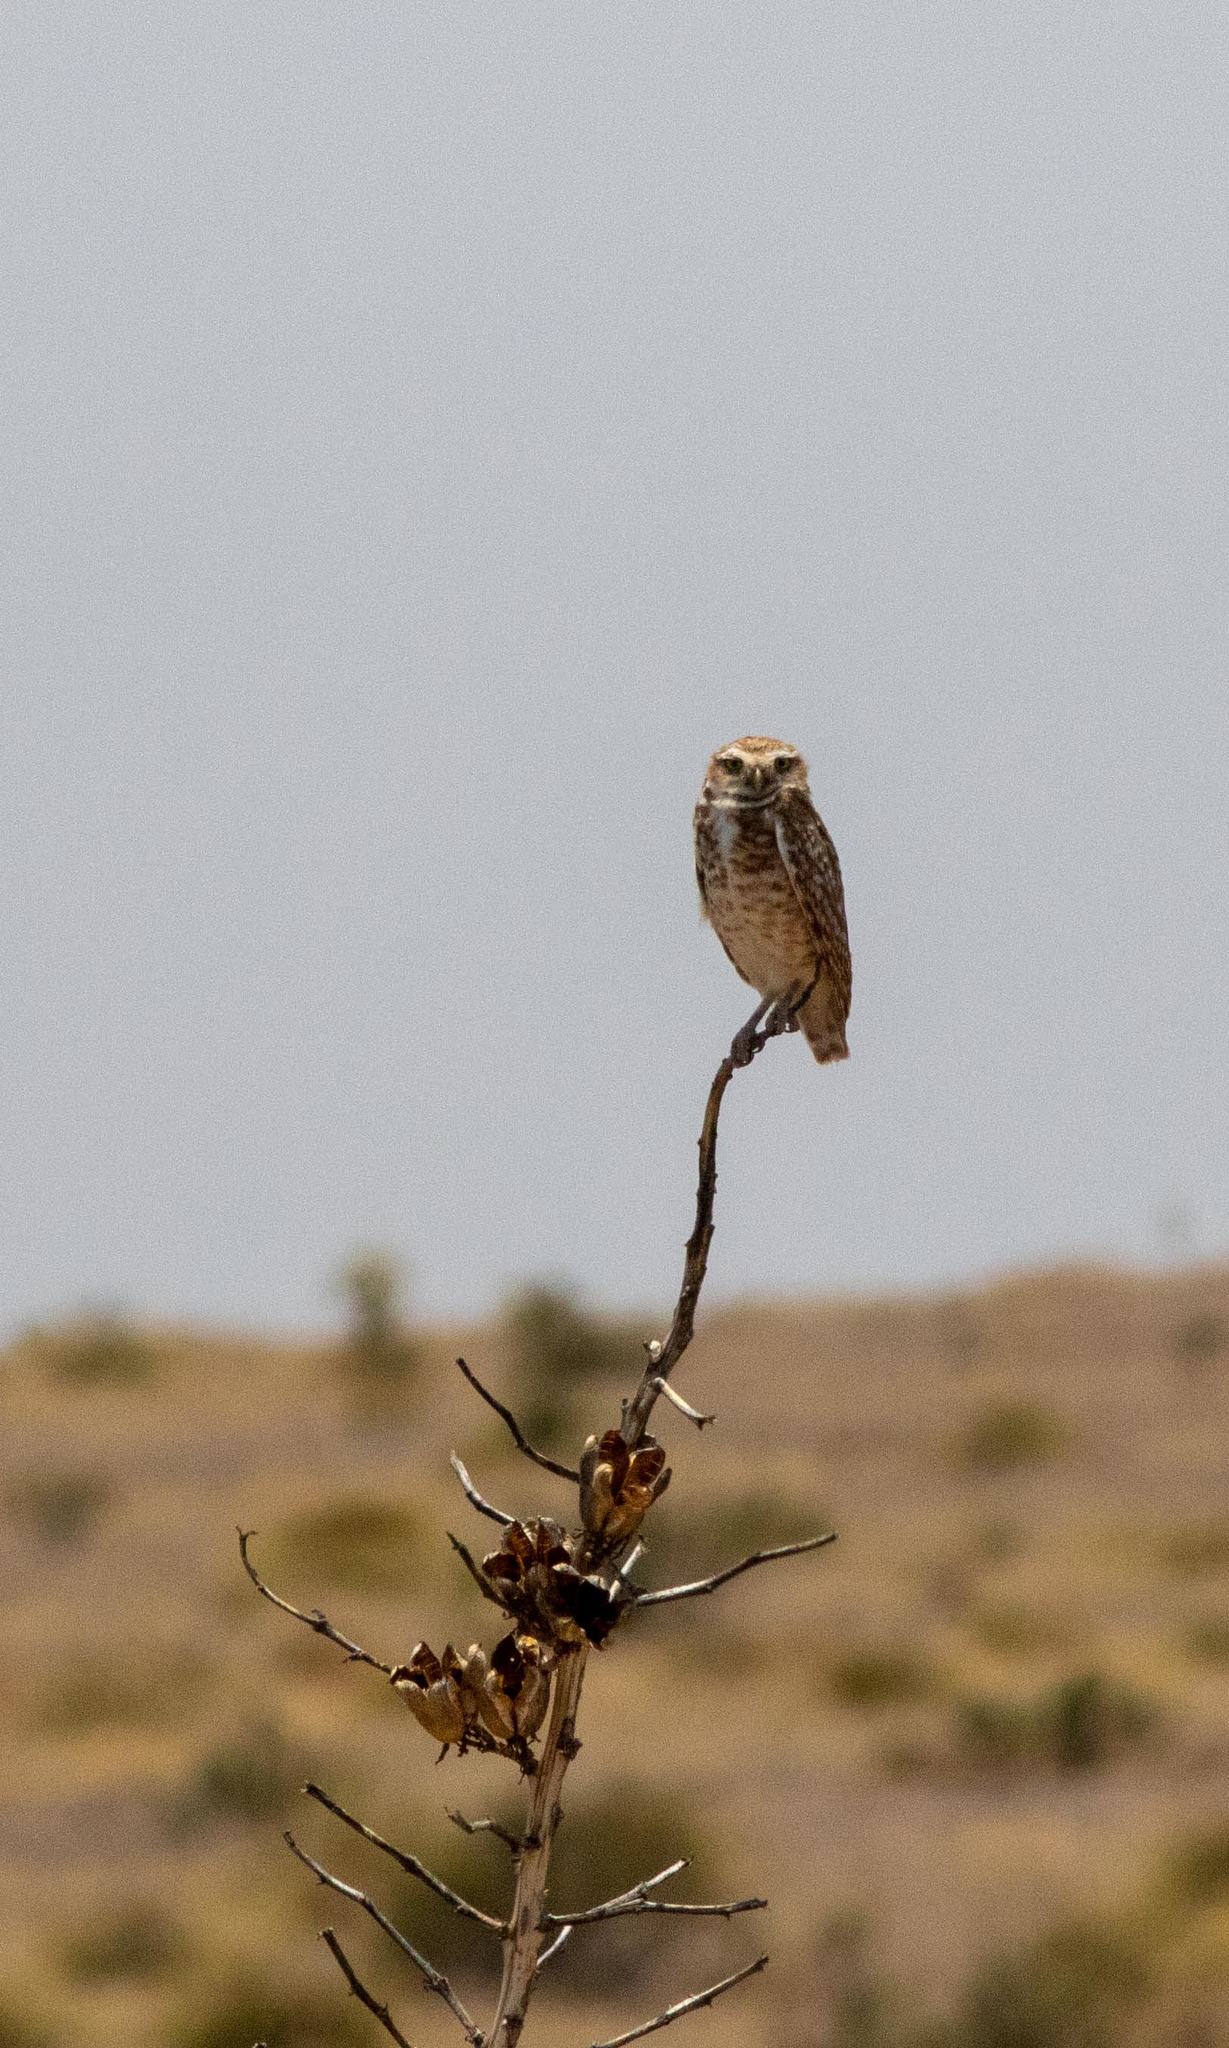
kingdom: Animalia
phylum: Chordata
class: Aves
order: Strigiformes
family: Strigidae
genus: Athene
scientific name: Athene cunicularia
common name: Burrowing owl
